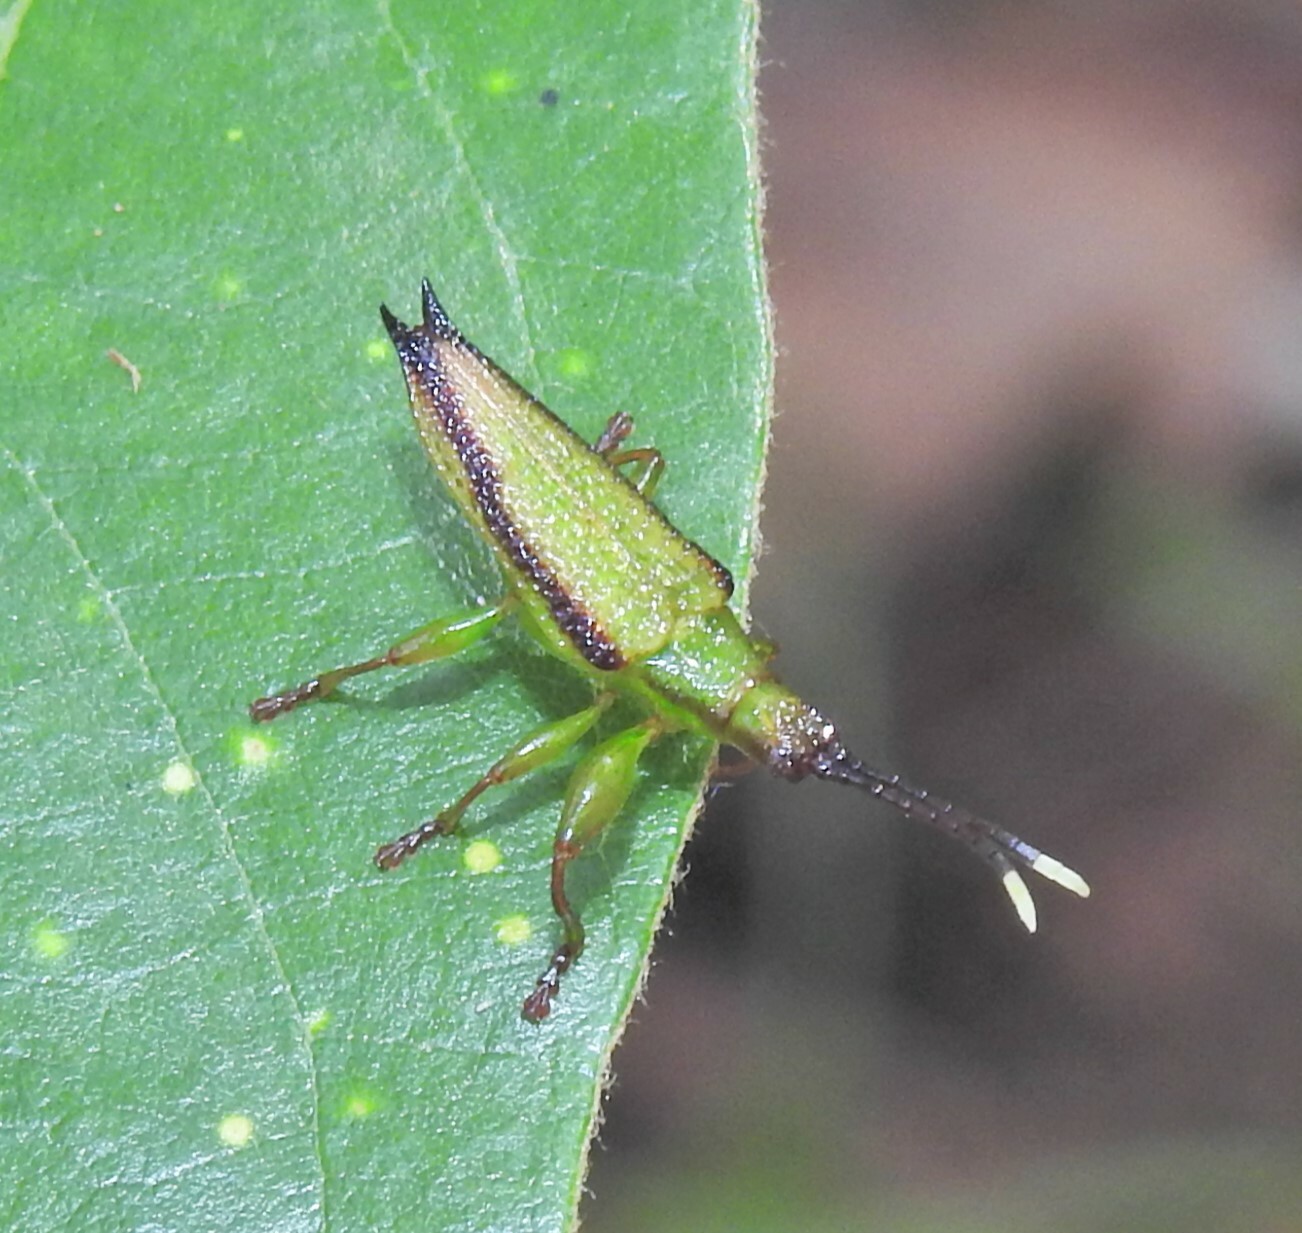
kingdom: Animalia
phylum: Arthropoda
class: Insecta
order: Coleoptera
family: Chrysomelidae
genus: Aproida
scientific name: Aproida balyi
